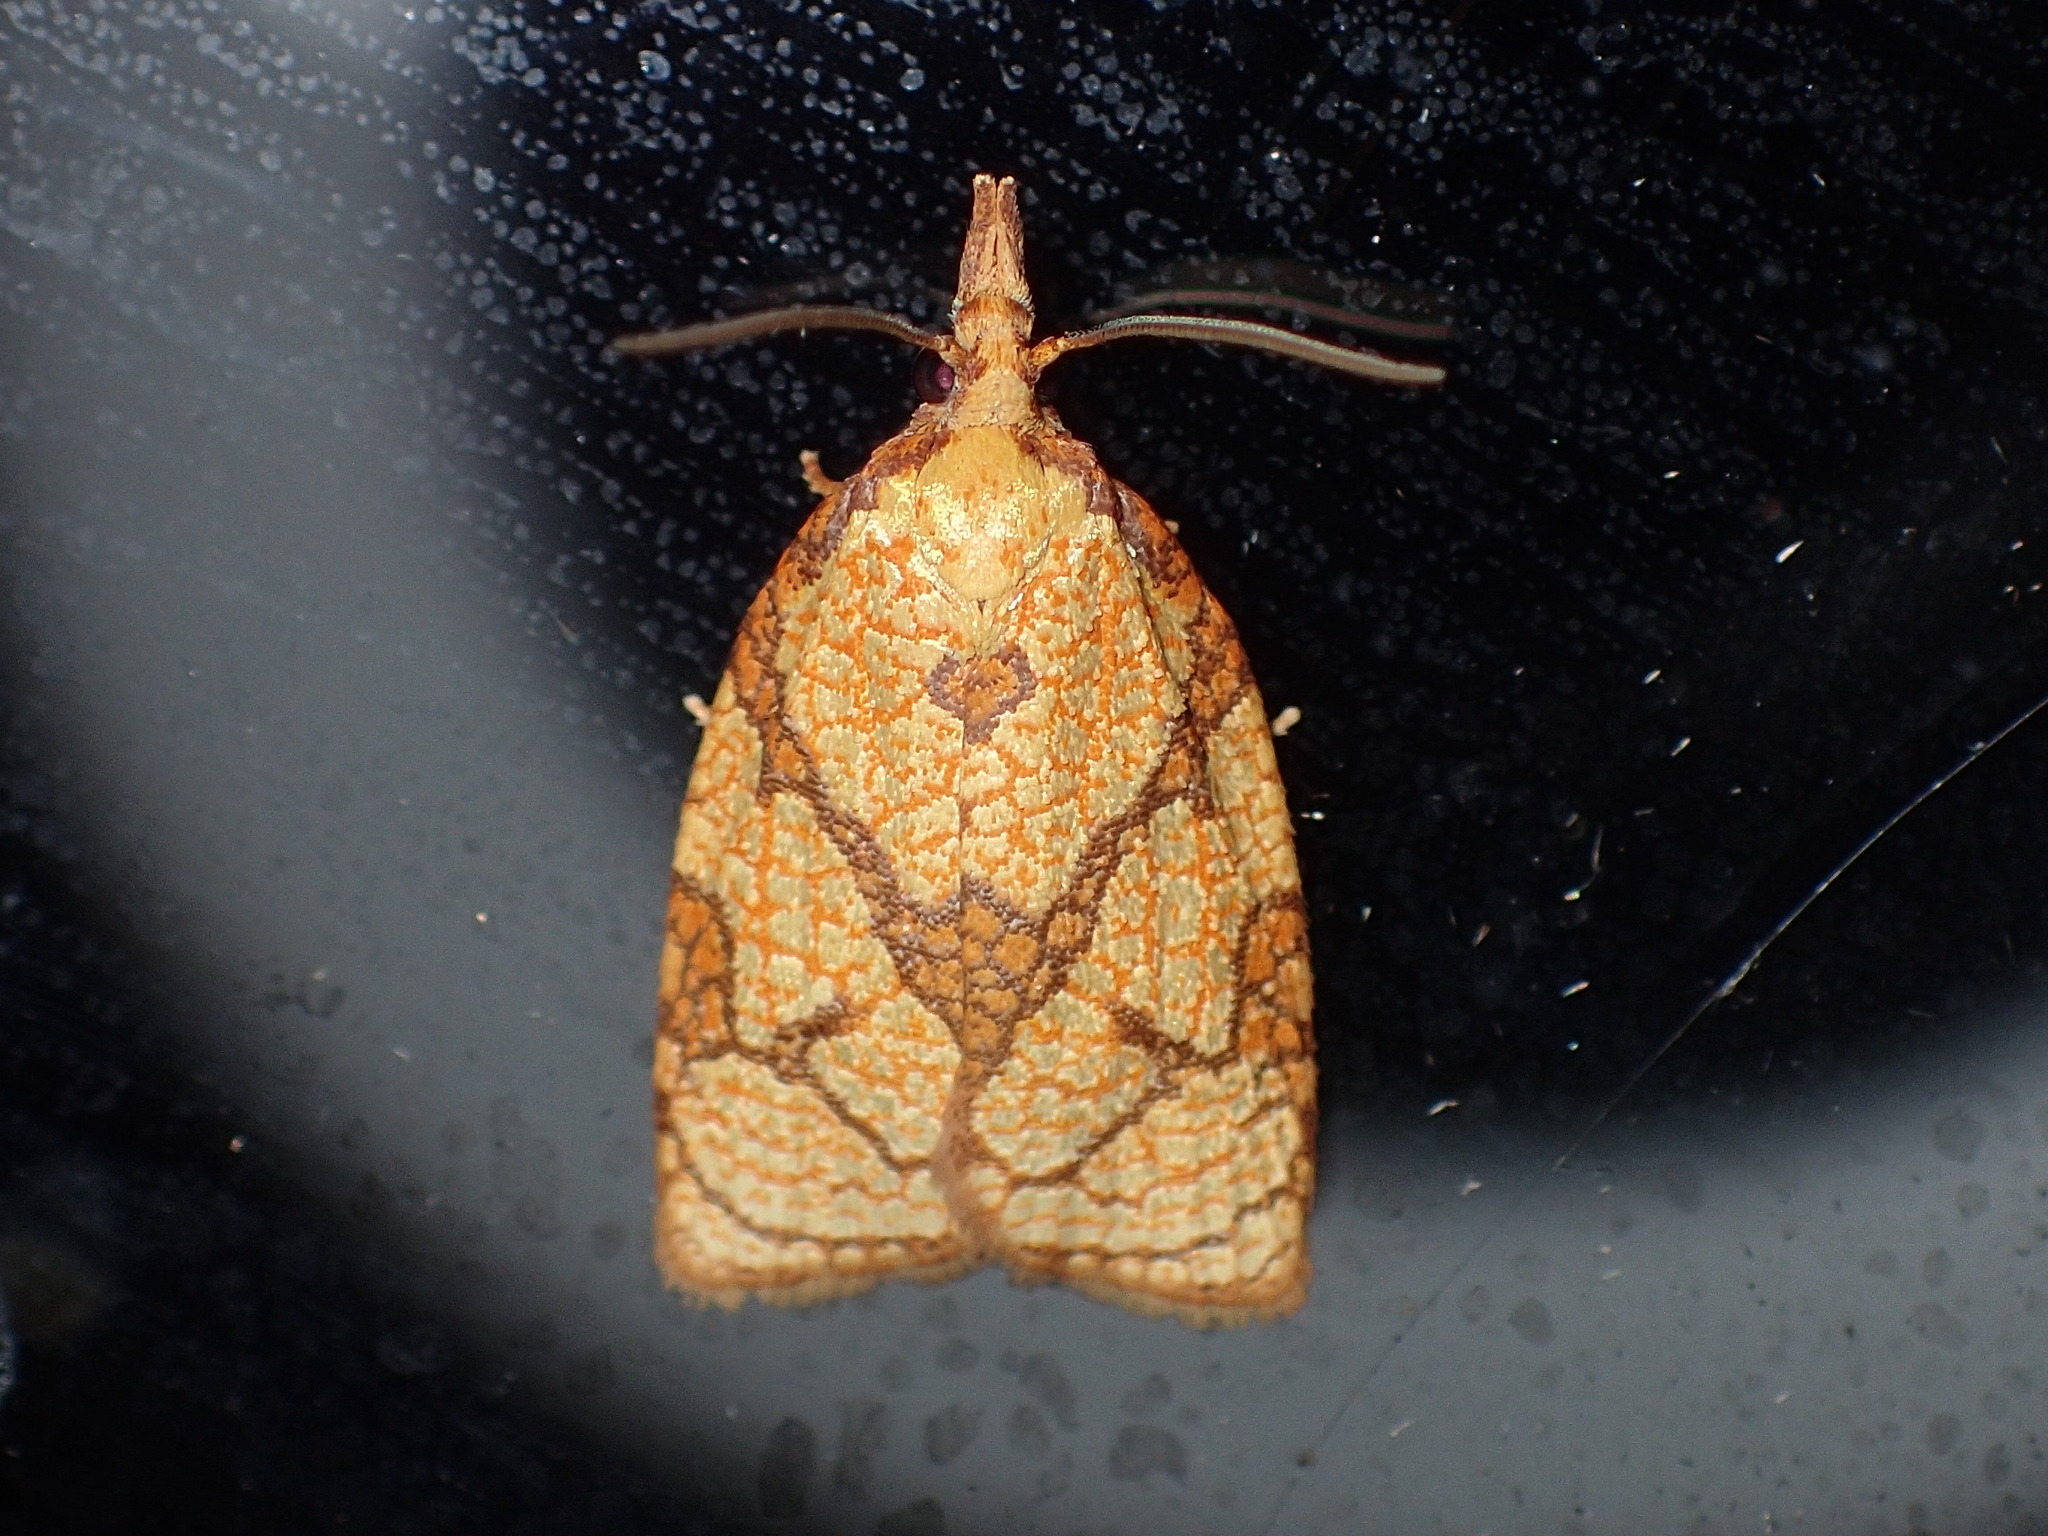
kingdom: Animalia
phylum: Arthropoda
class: Insecta
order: Lepidoptera
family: Tortricidae
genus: Cenopis
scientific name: Cenopis reticulatana
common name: Reticulated fruitworm moth
